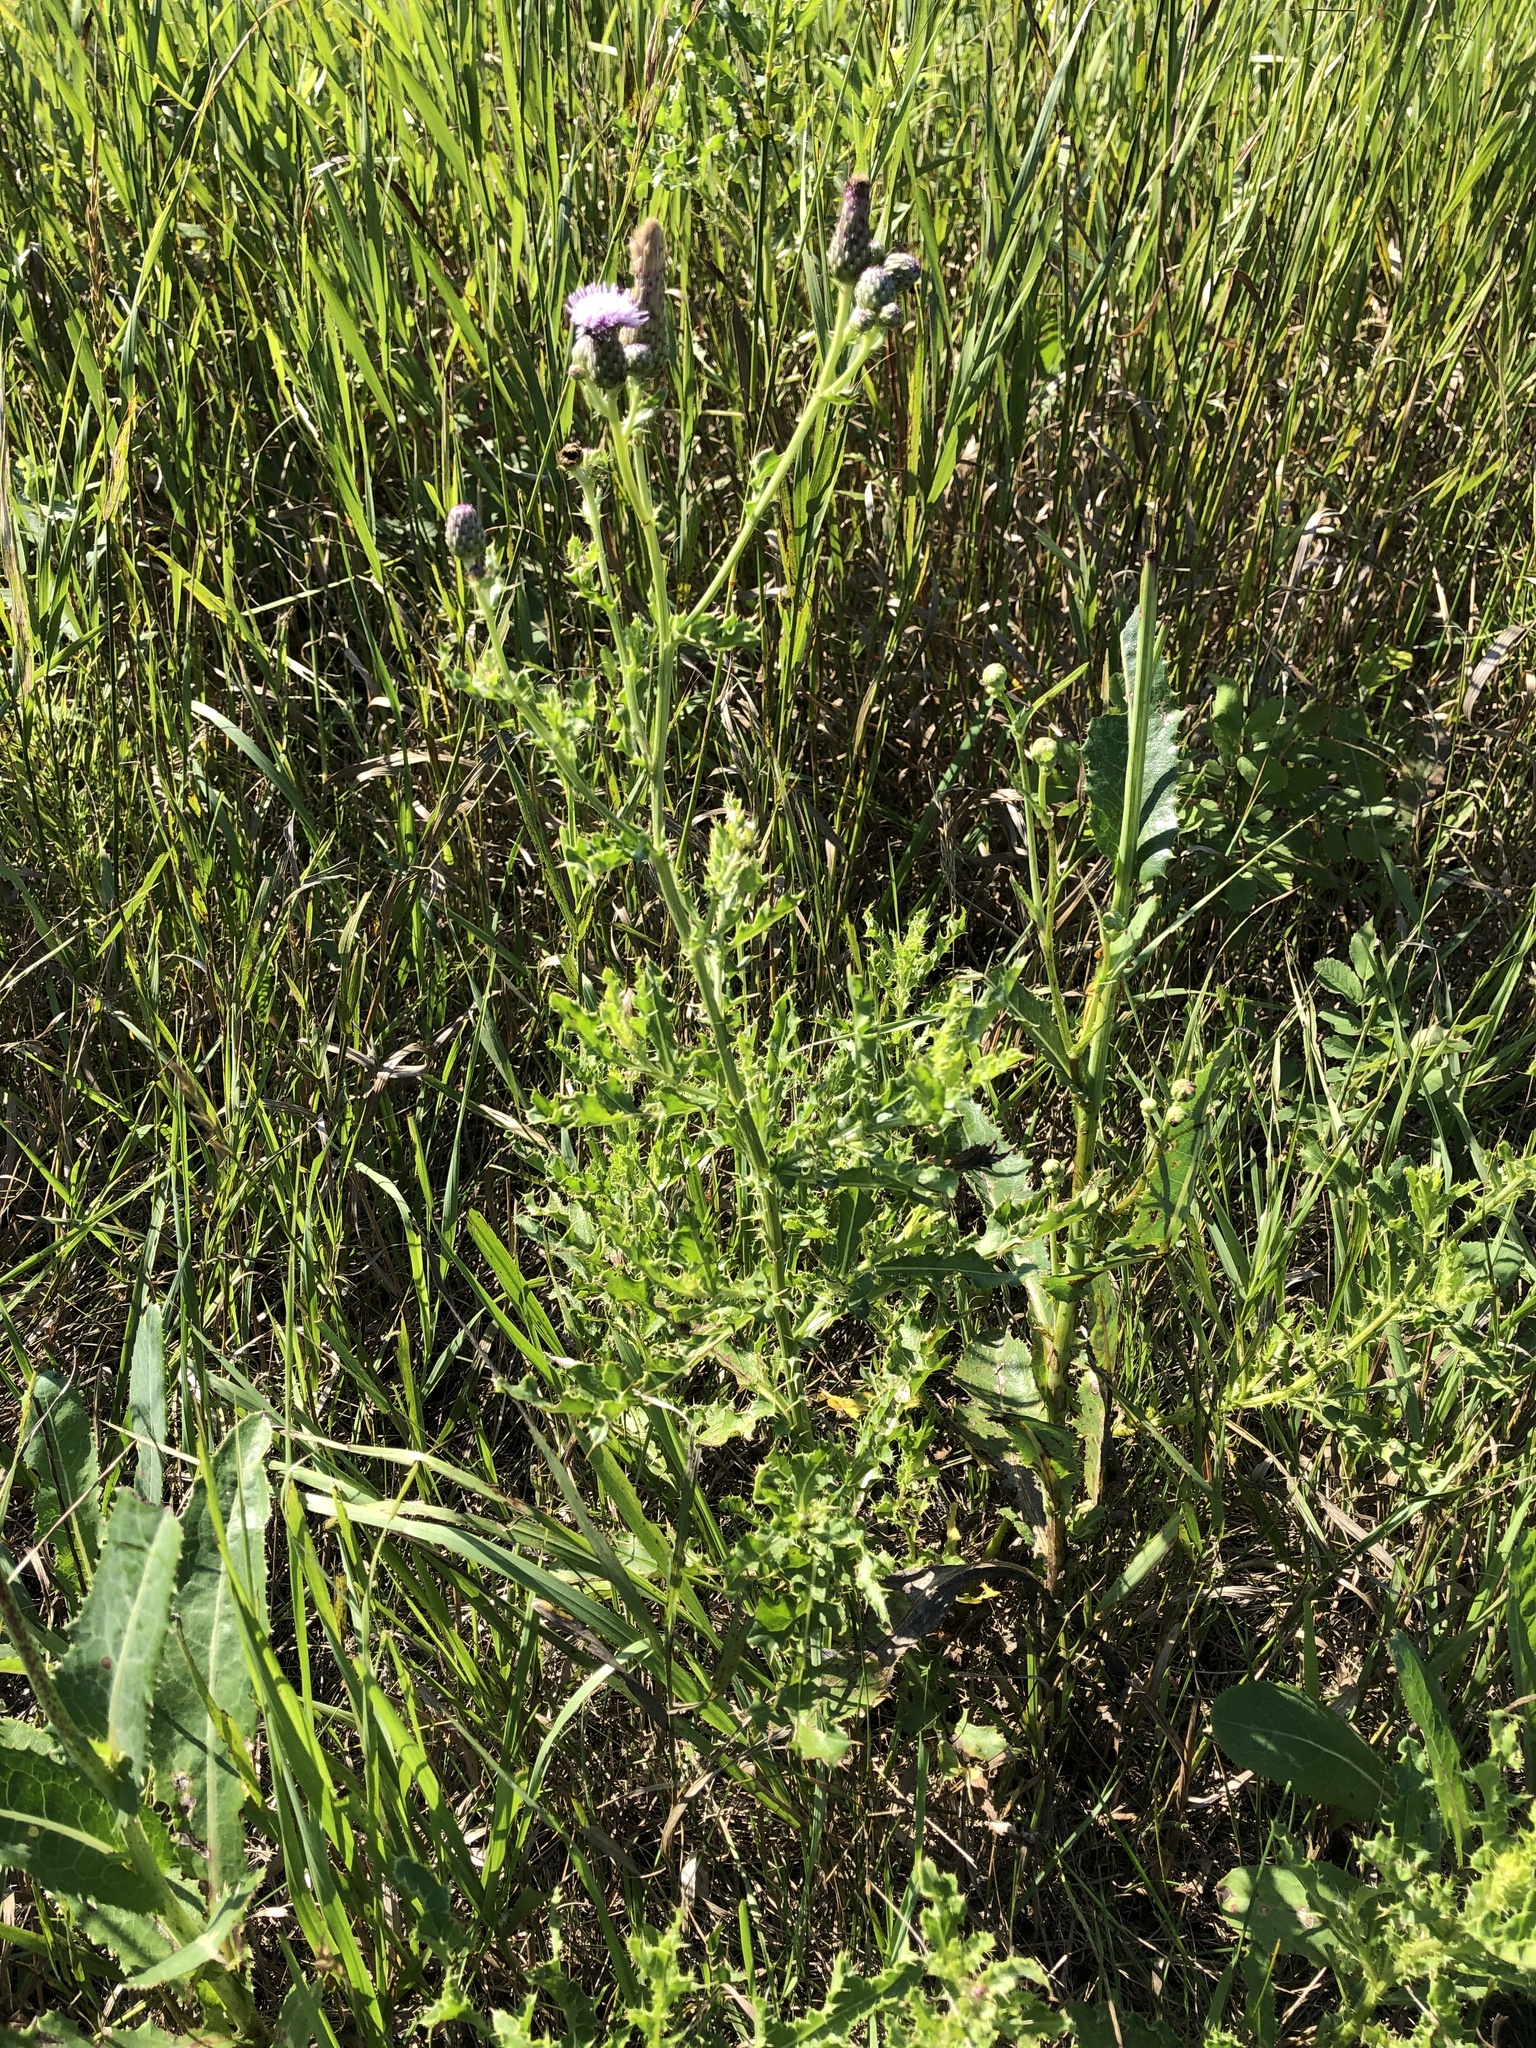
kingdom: Plantae
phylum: Tracheophyta
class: Magnoliopsida
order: Asterales
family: Asteraceae
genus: Cirsium
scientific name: Cirsium arvense
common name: Creeping thistle
